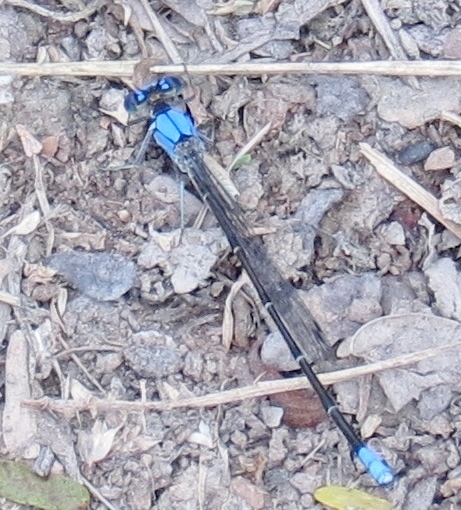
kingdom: Animalia
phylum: Arthropoda
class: Insecta
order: Odonata
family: Coenagrionidae
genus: Argia
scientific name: Argia apicalis
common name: Blue-fronted dancer
